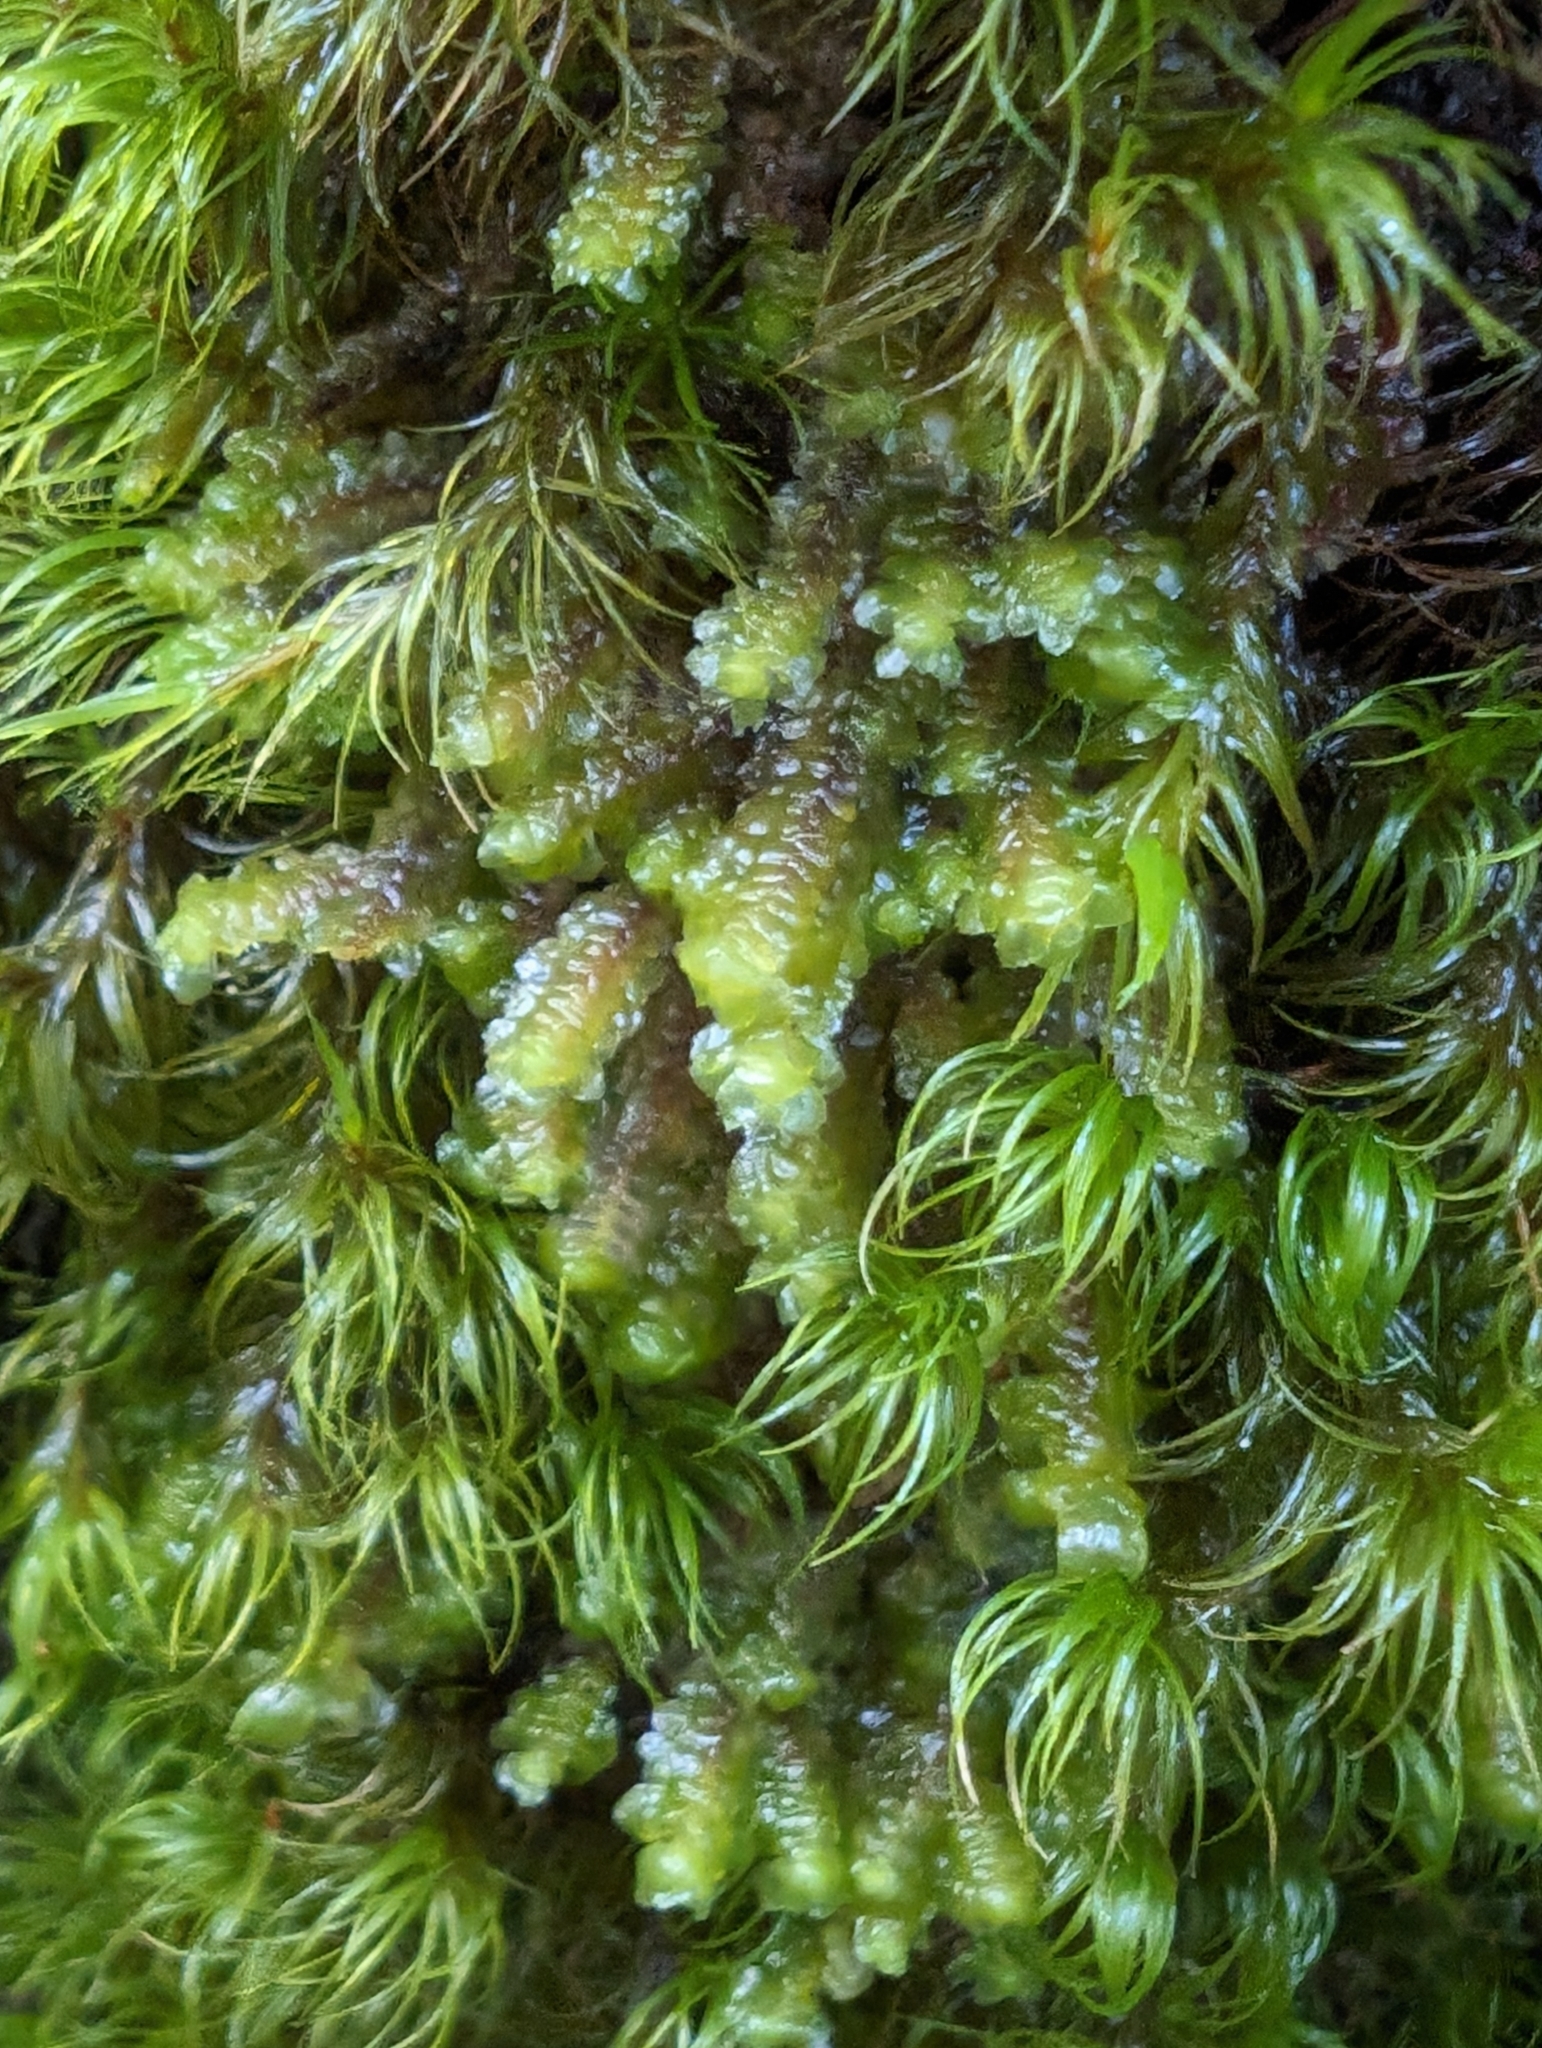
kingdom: Plantae
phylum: Marchantiophyta
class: Jungermanniopsida
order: Jungermanniales
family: Scapaniaceae
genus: Scapania
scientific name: Scapania bolanderi
